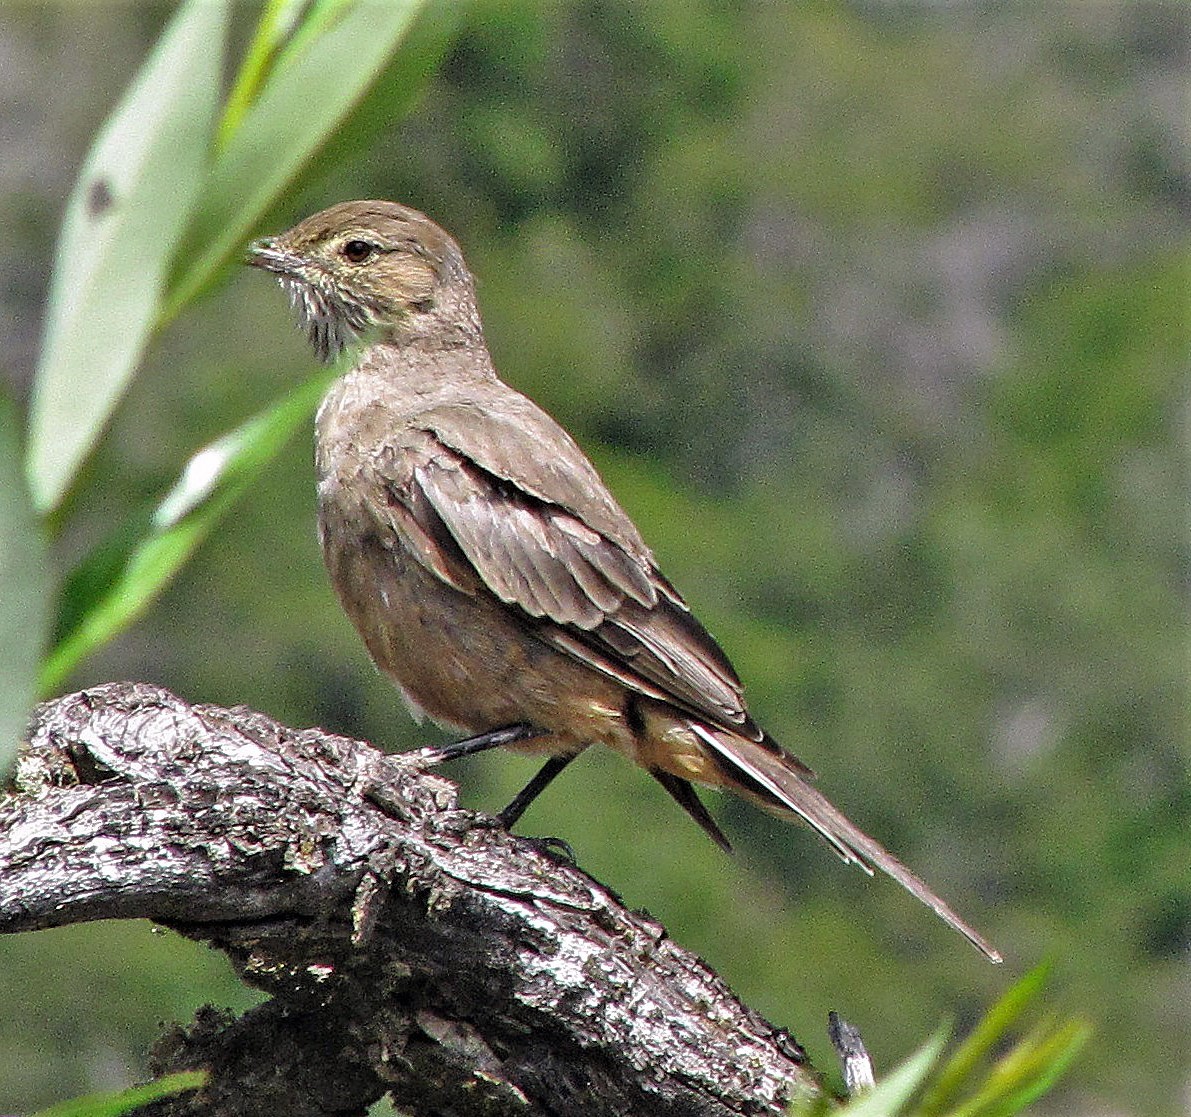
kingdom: Animalia
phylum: Chordata
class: Aves
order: Passeriformes
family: Tyrannidae
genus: Agriornis
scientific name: Agriornis lividus
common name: Great shrike-tyrant
